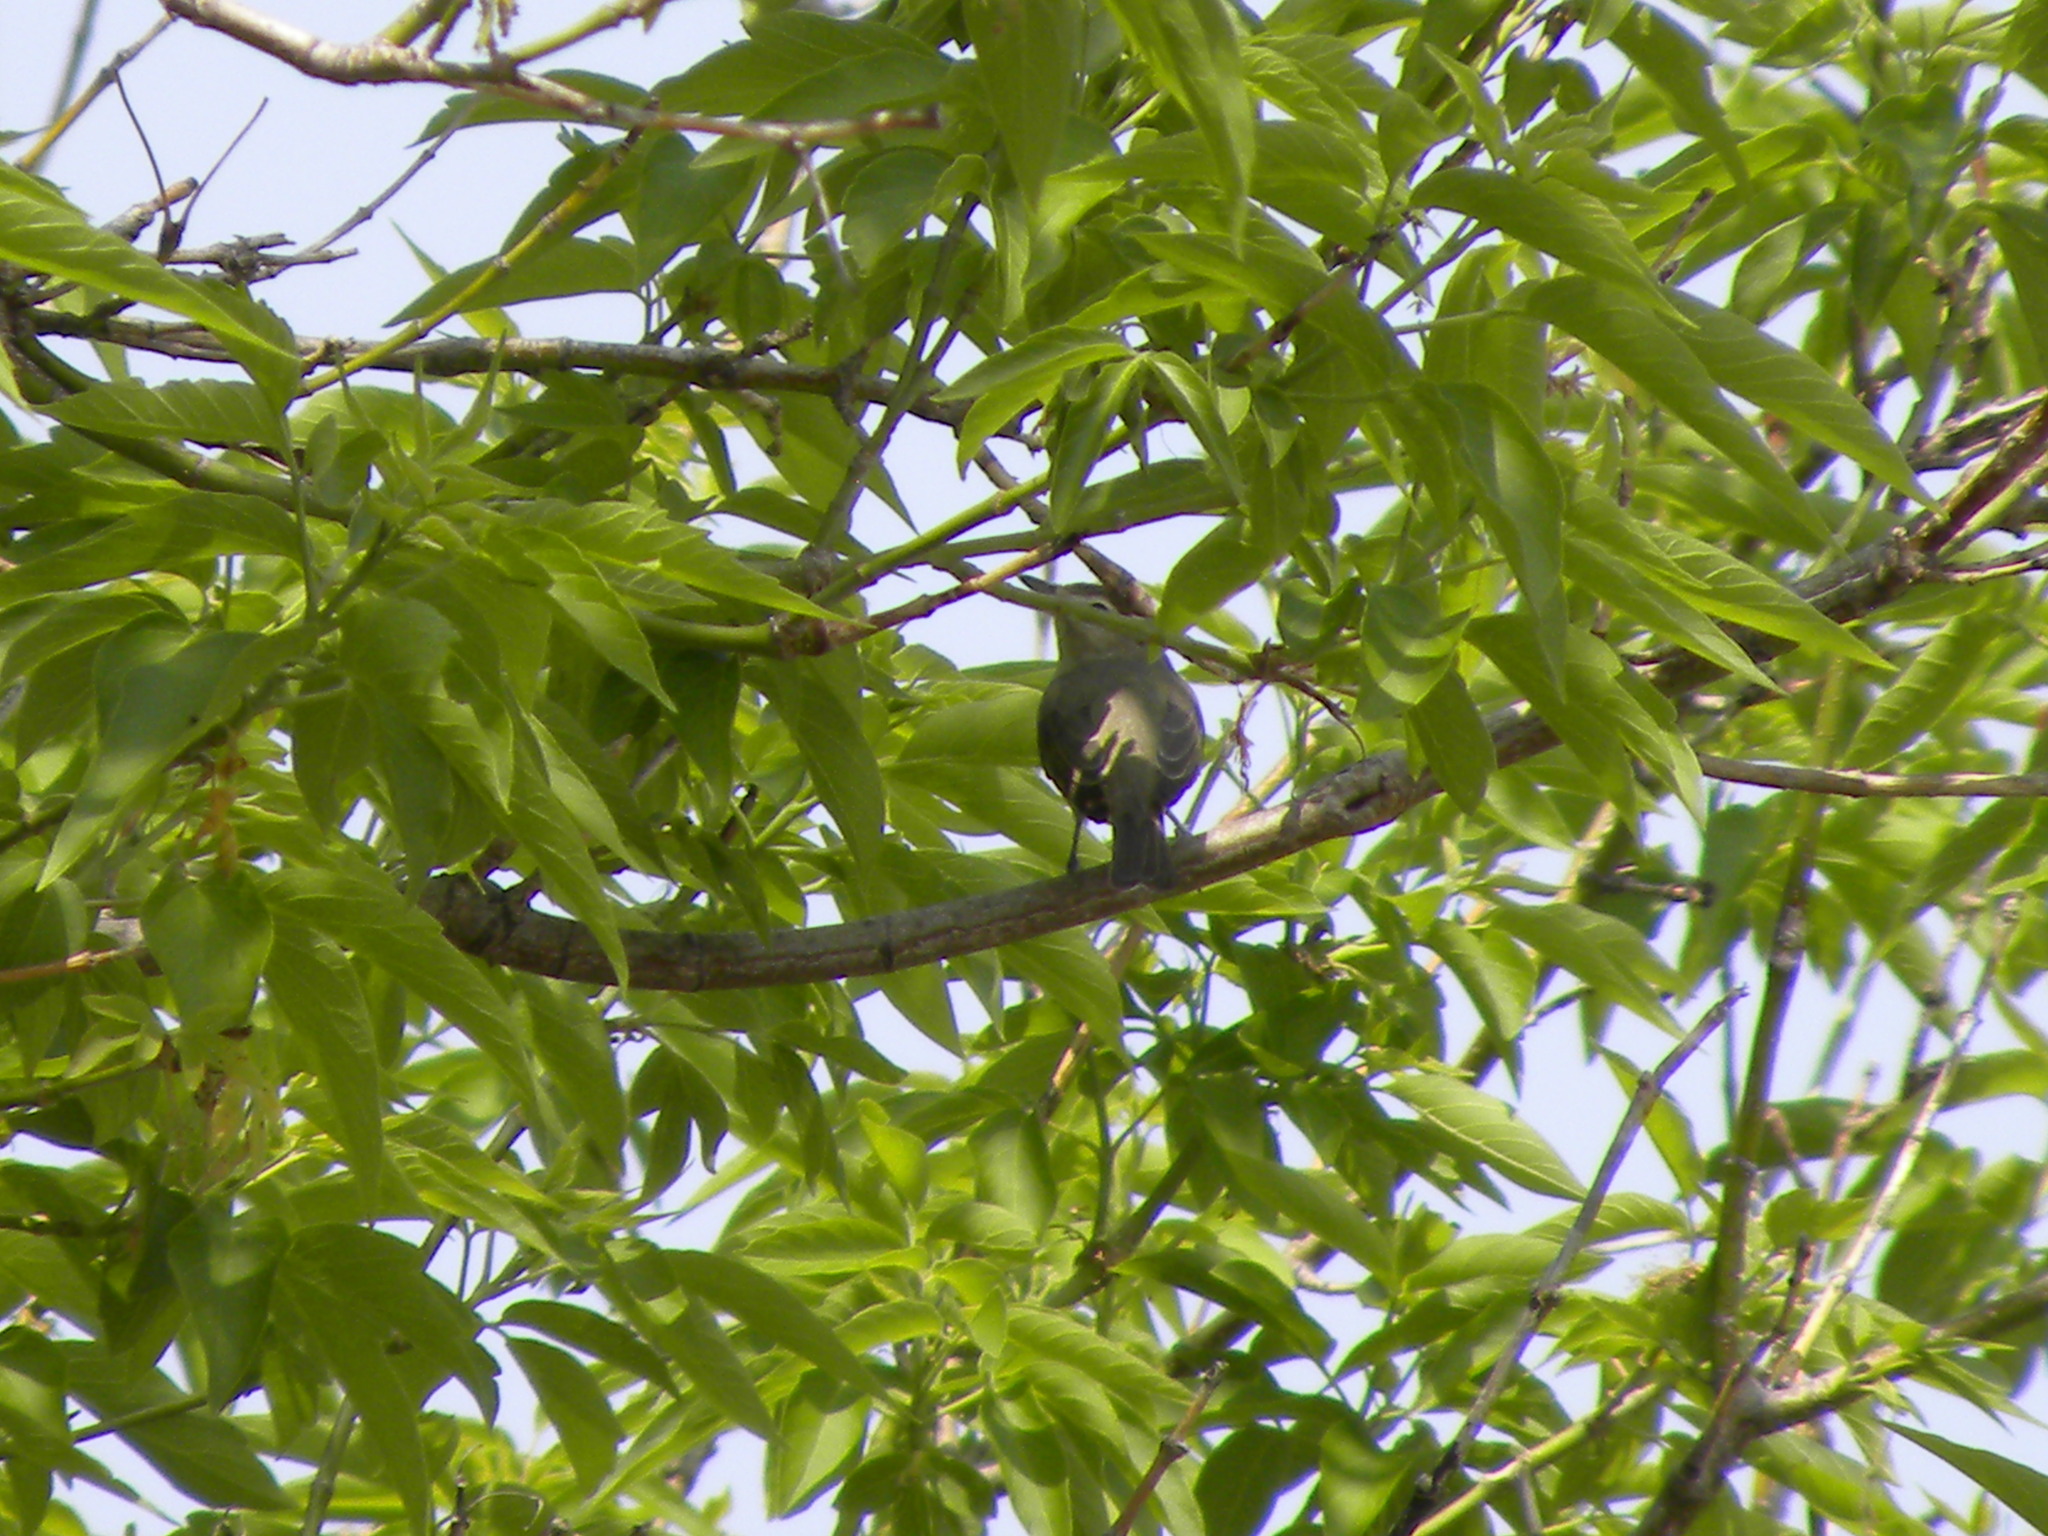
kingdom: Animalia
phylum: Chordata
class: Aves
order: Passeriformes
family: Vireonidae
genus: Vireo
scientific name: Vireo gilvus
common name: Warbling vireo
